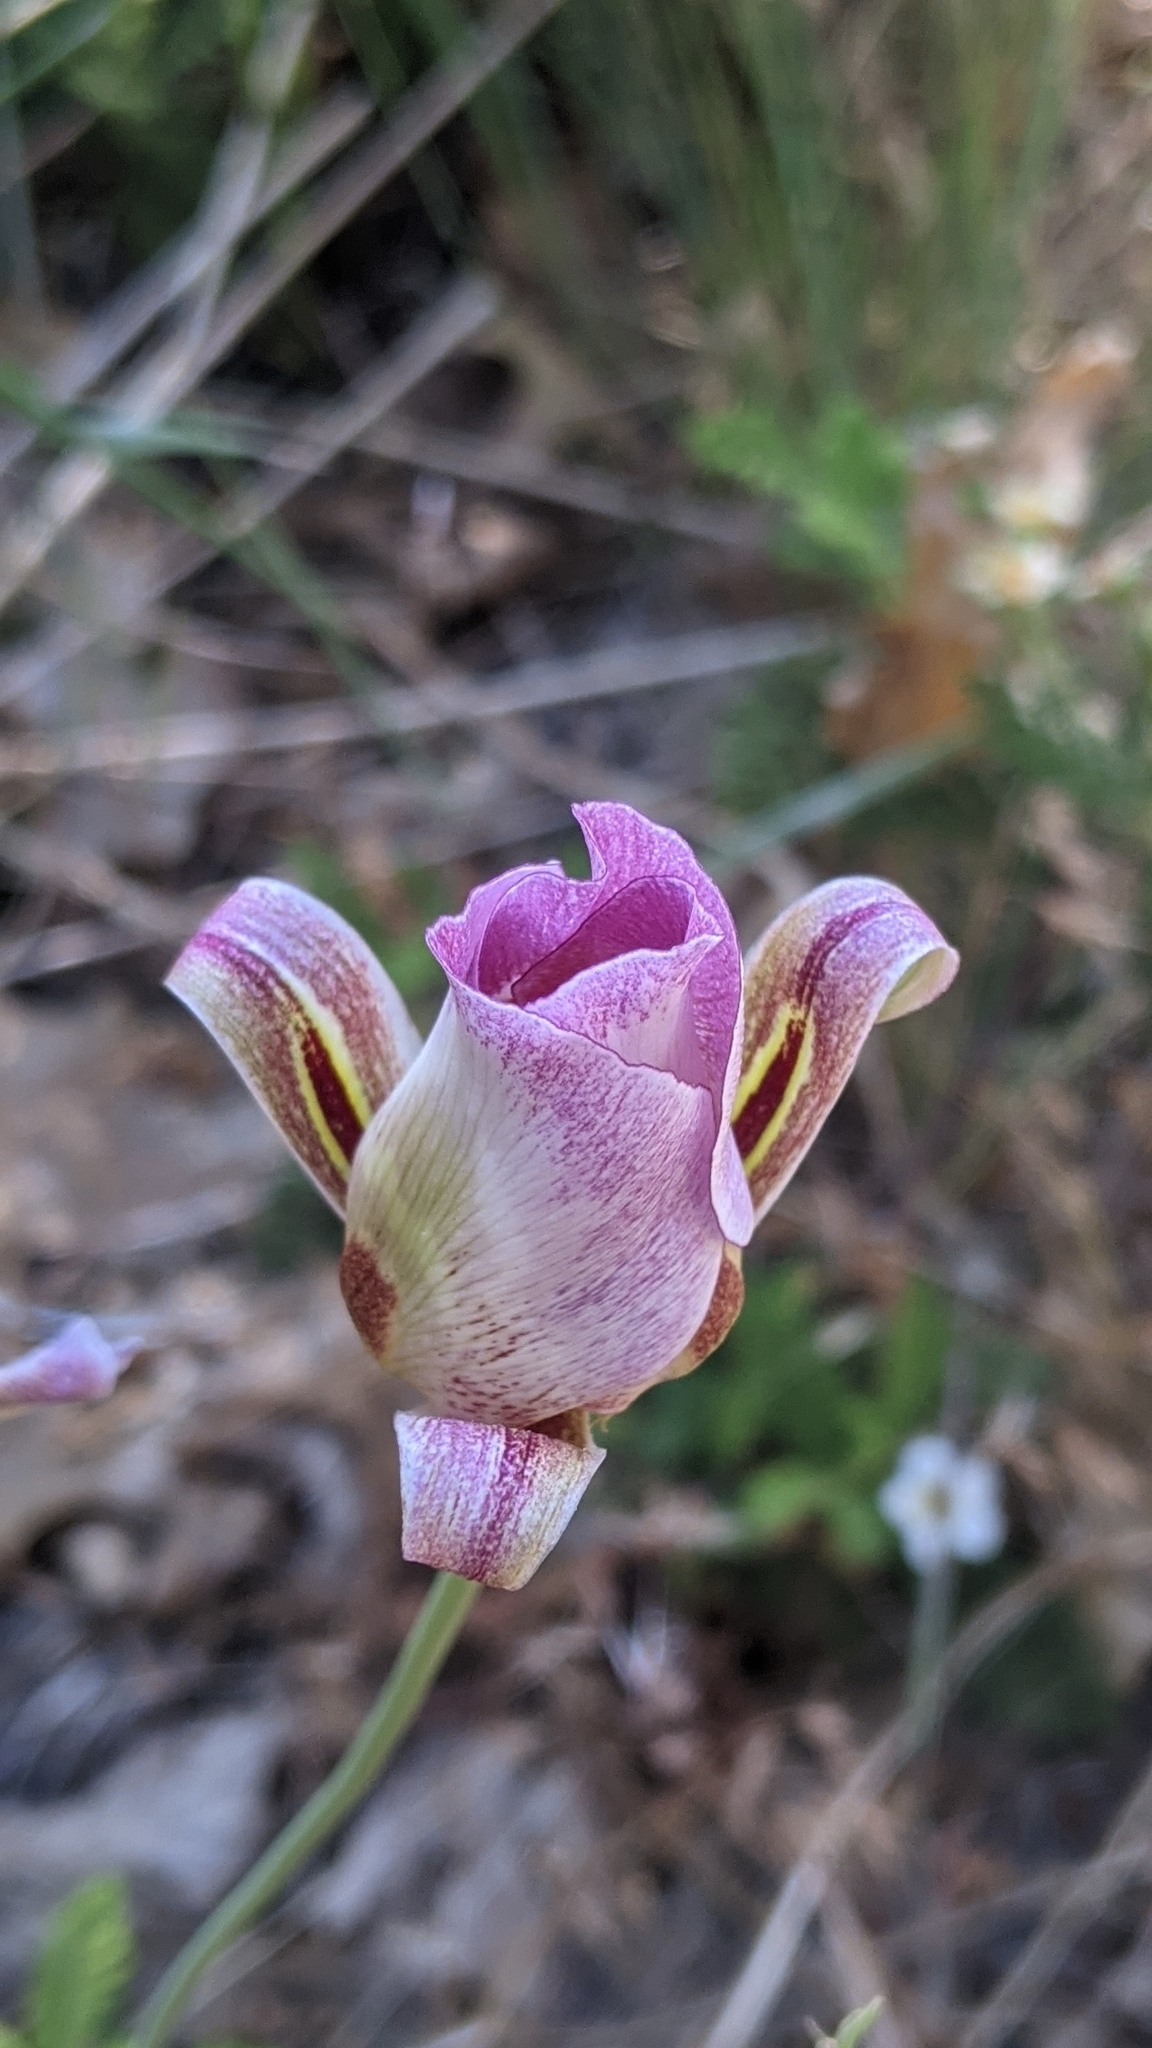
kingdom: Plantae
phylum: Tracheophyta
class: Liliopsida
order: Liliales
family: Liliaceae
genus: Calochortus
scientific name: Calochortus venustus
